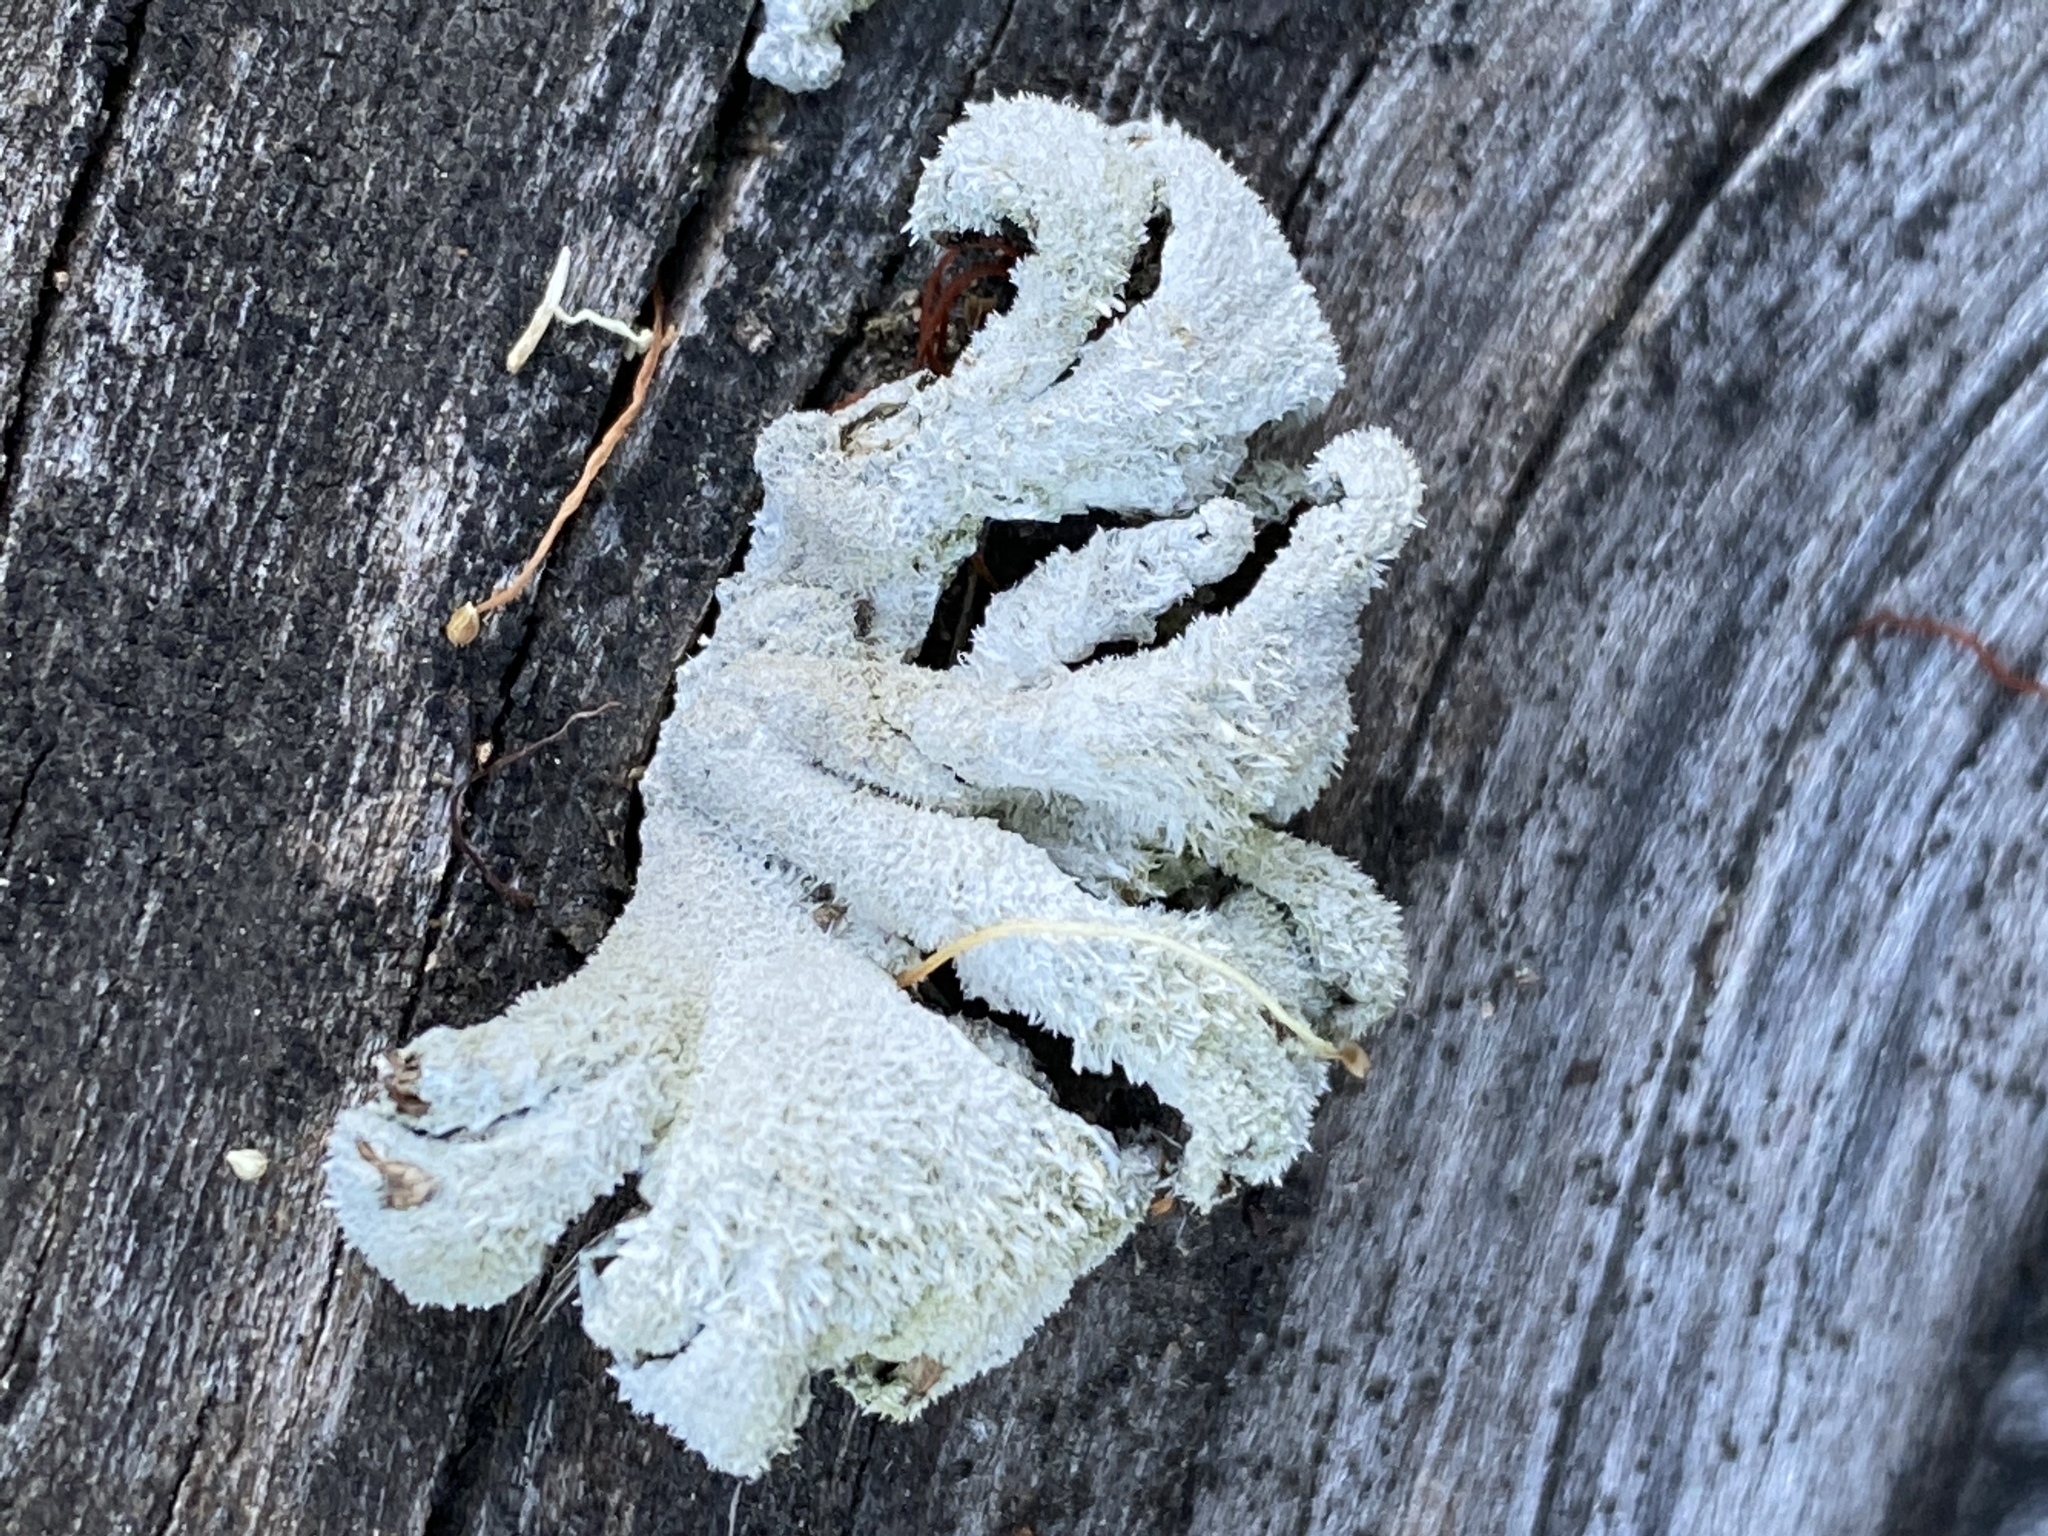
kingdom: Fungi
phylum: Basidiomycota
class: Agaricomycetes
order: Agaricales
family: Schizophyllaceae
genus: Schizophyllum
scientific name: Schizophyllum commune
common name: Common porecrust
